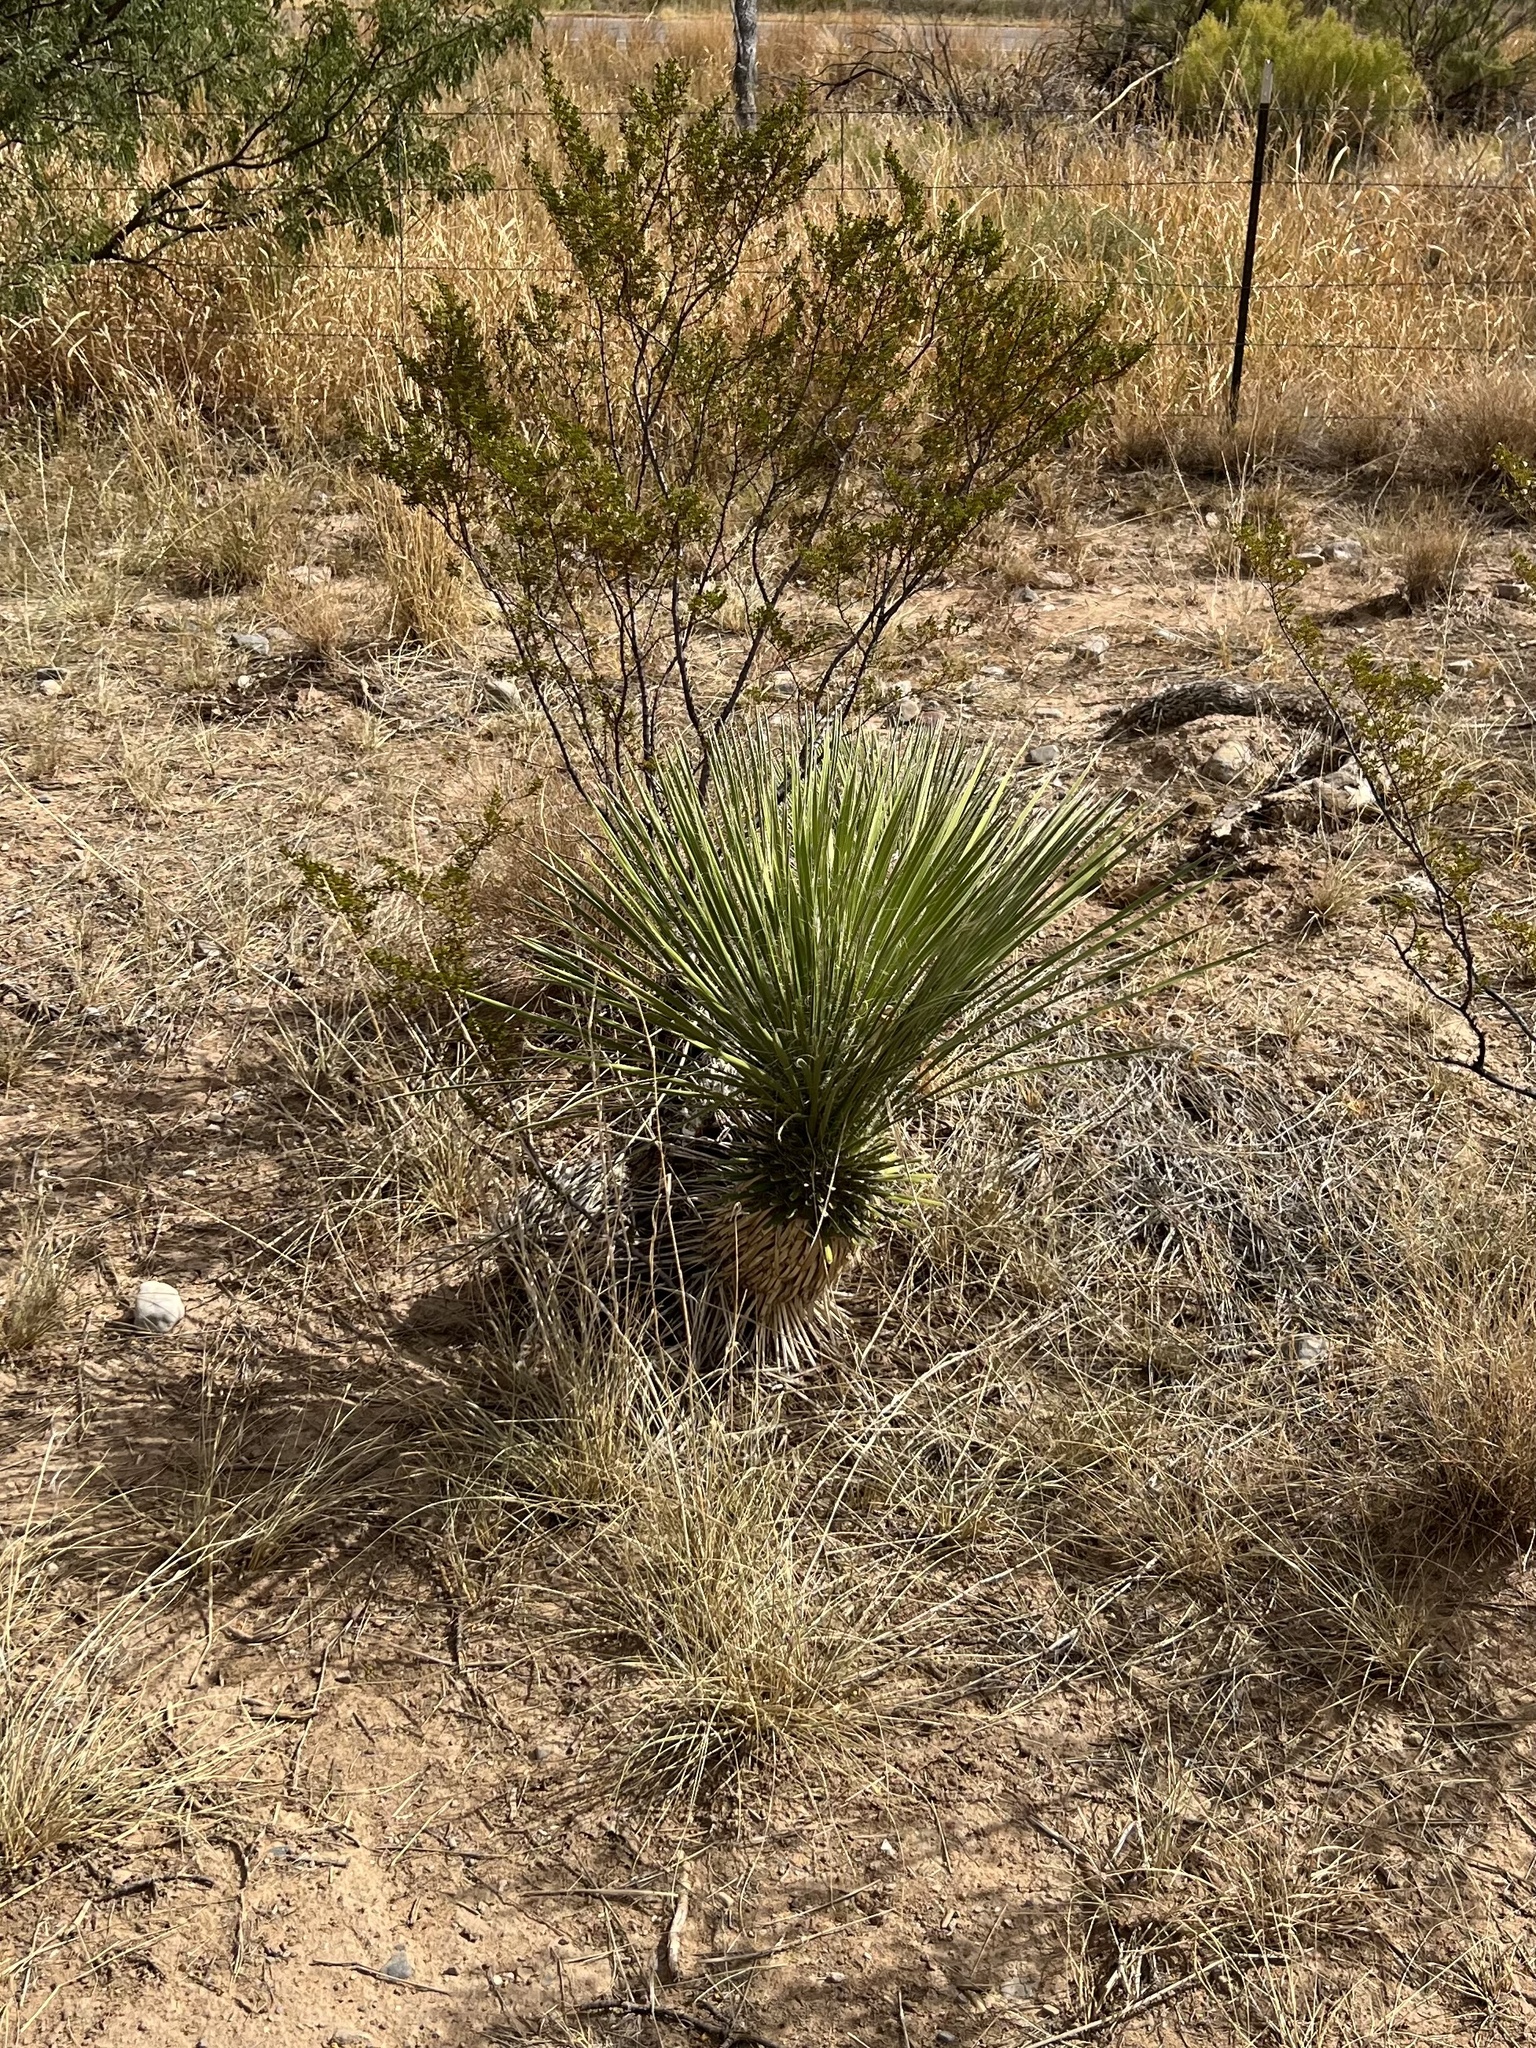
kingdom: Plantae
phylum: Tracheophyta
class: Liliopsida
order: Asparagales
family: Asparagaceae
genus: Yucca
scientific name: Yucca elata
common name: Palmella
